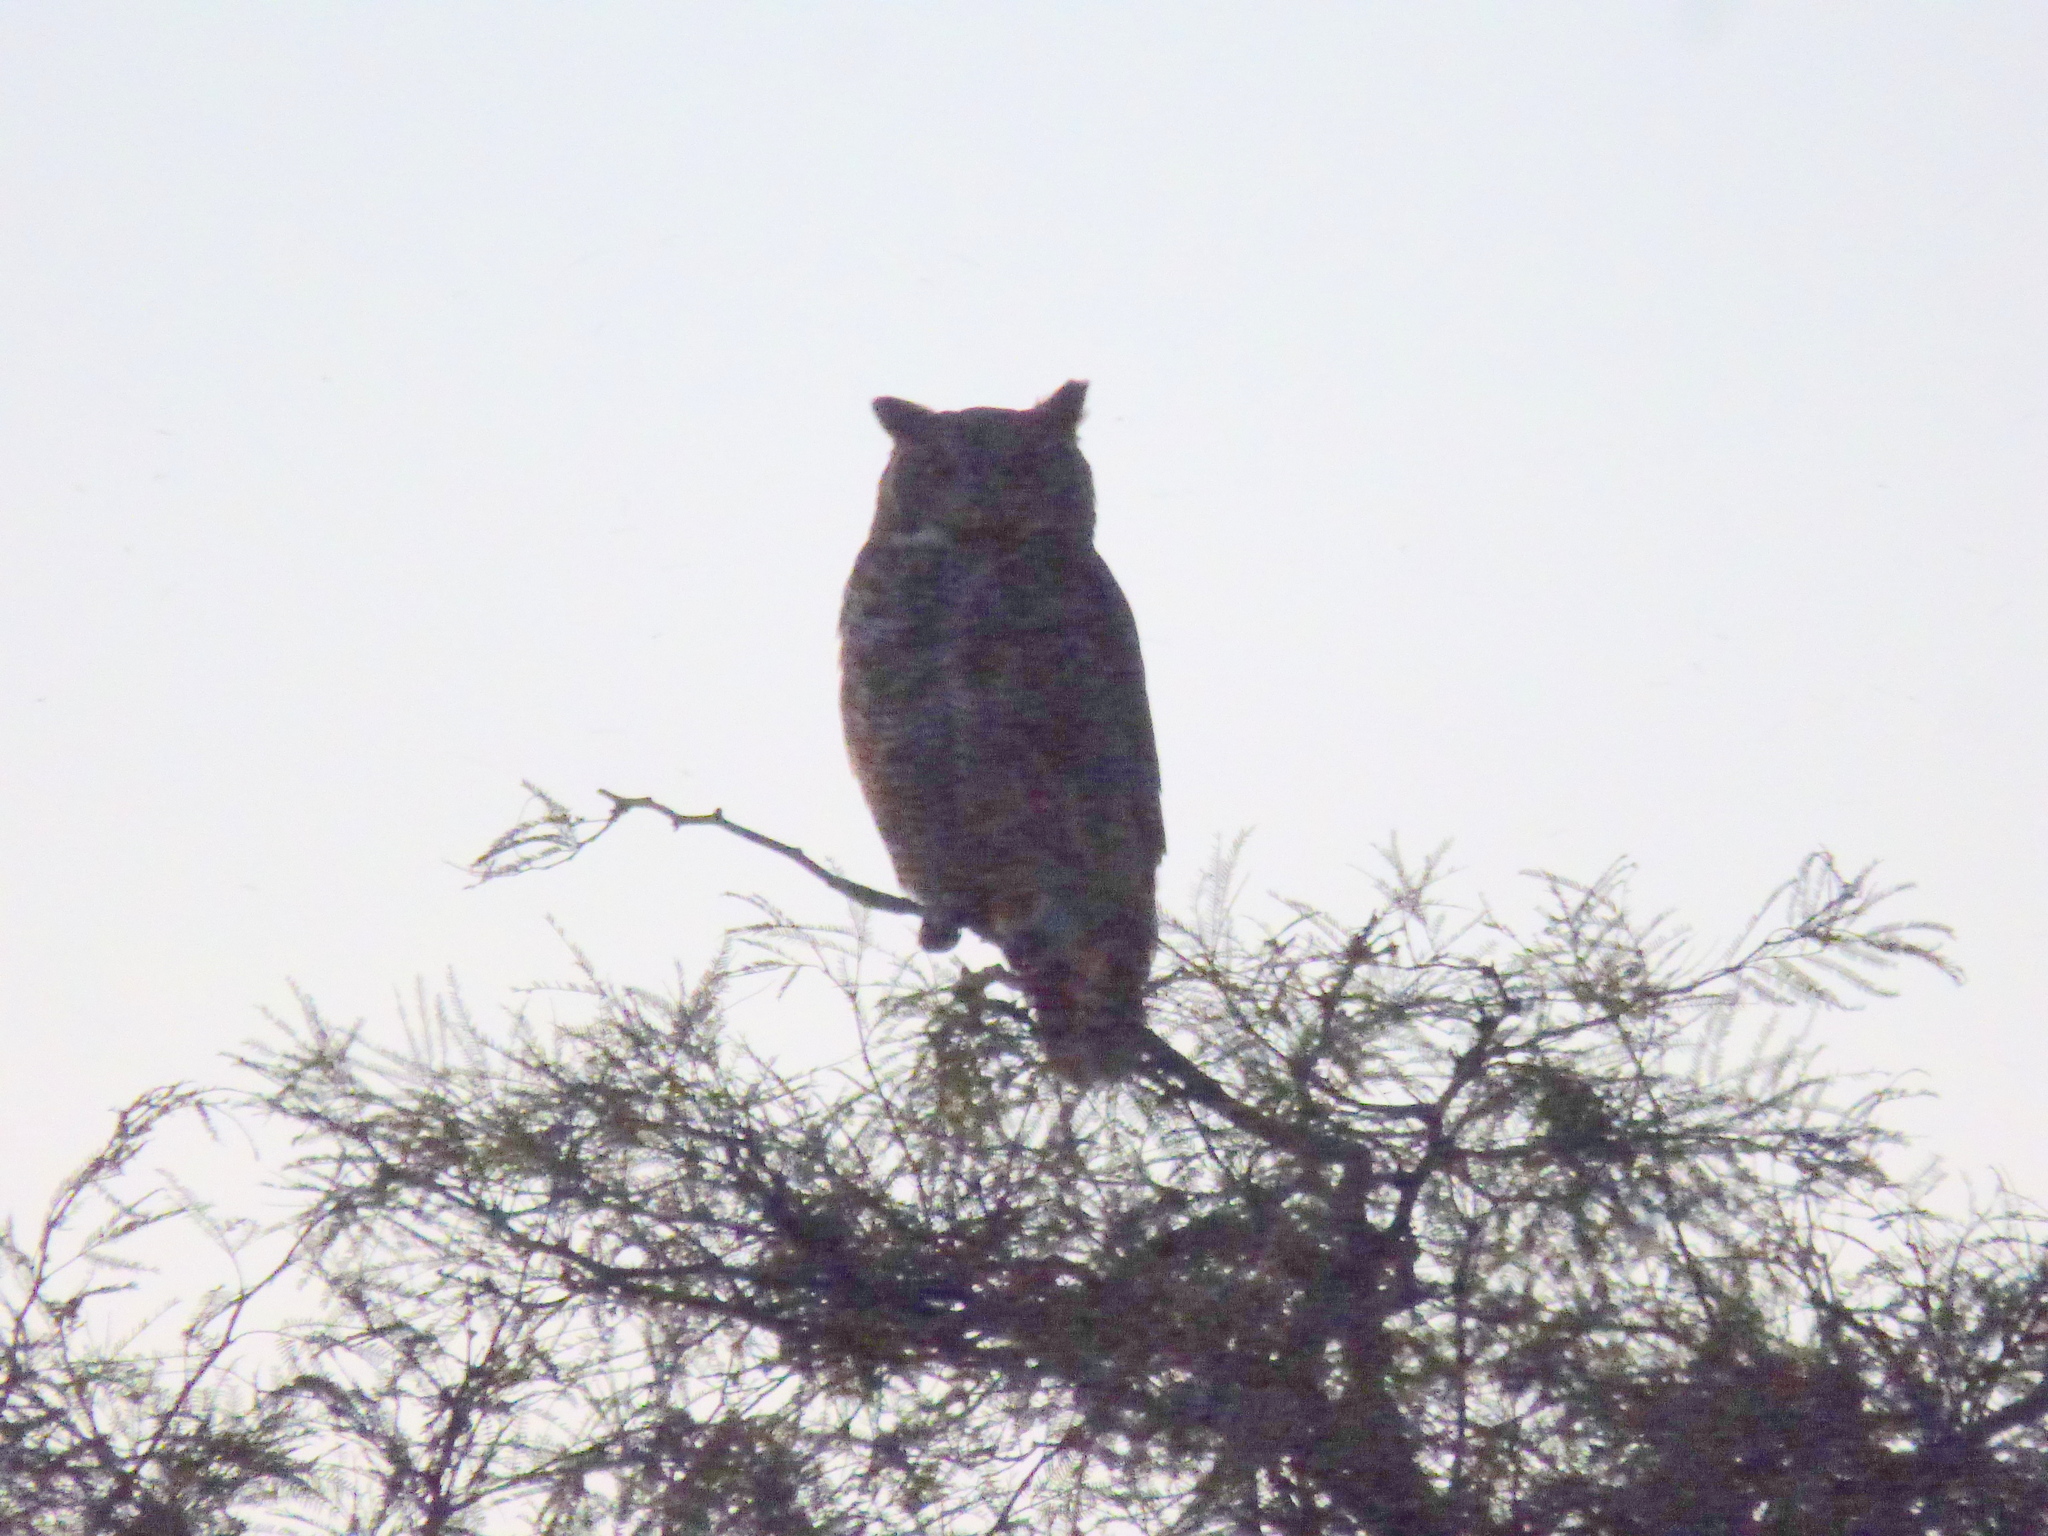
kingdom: Animalia
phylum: Chordata
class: Aves
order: Strigiformes
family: Strigidae
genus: Bubo
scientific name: Bubo virginianus
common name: Great horned owl
